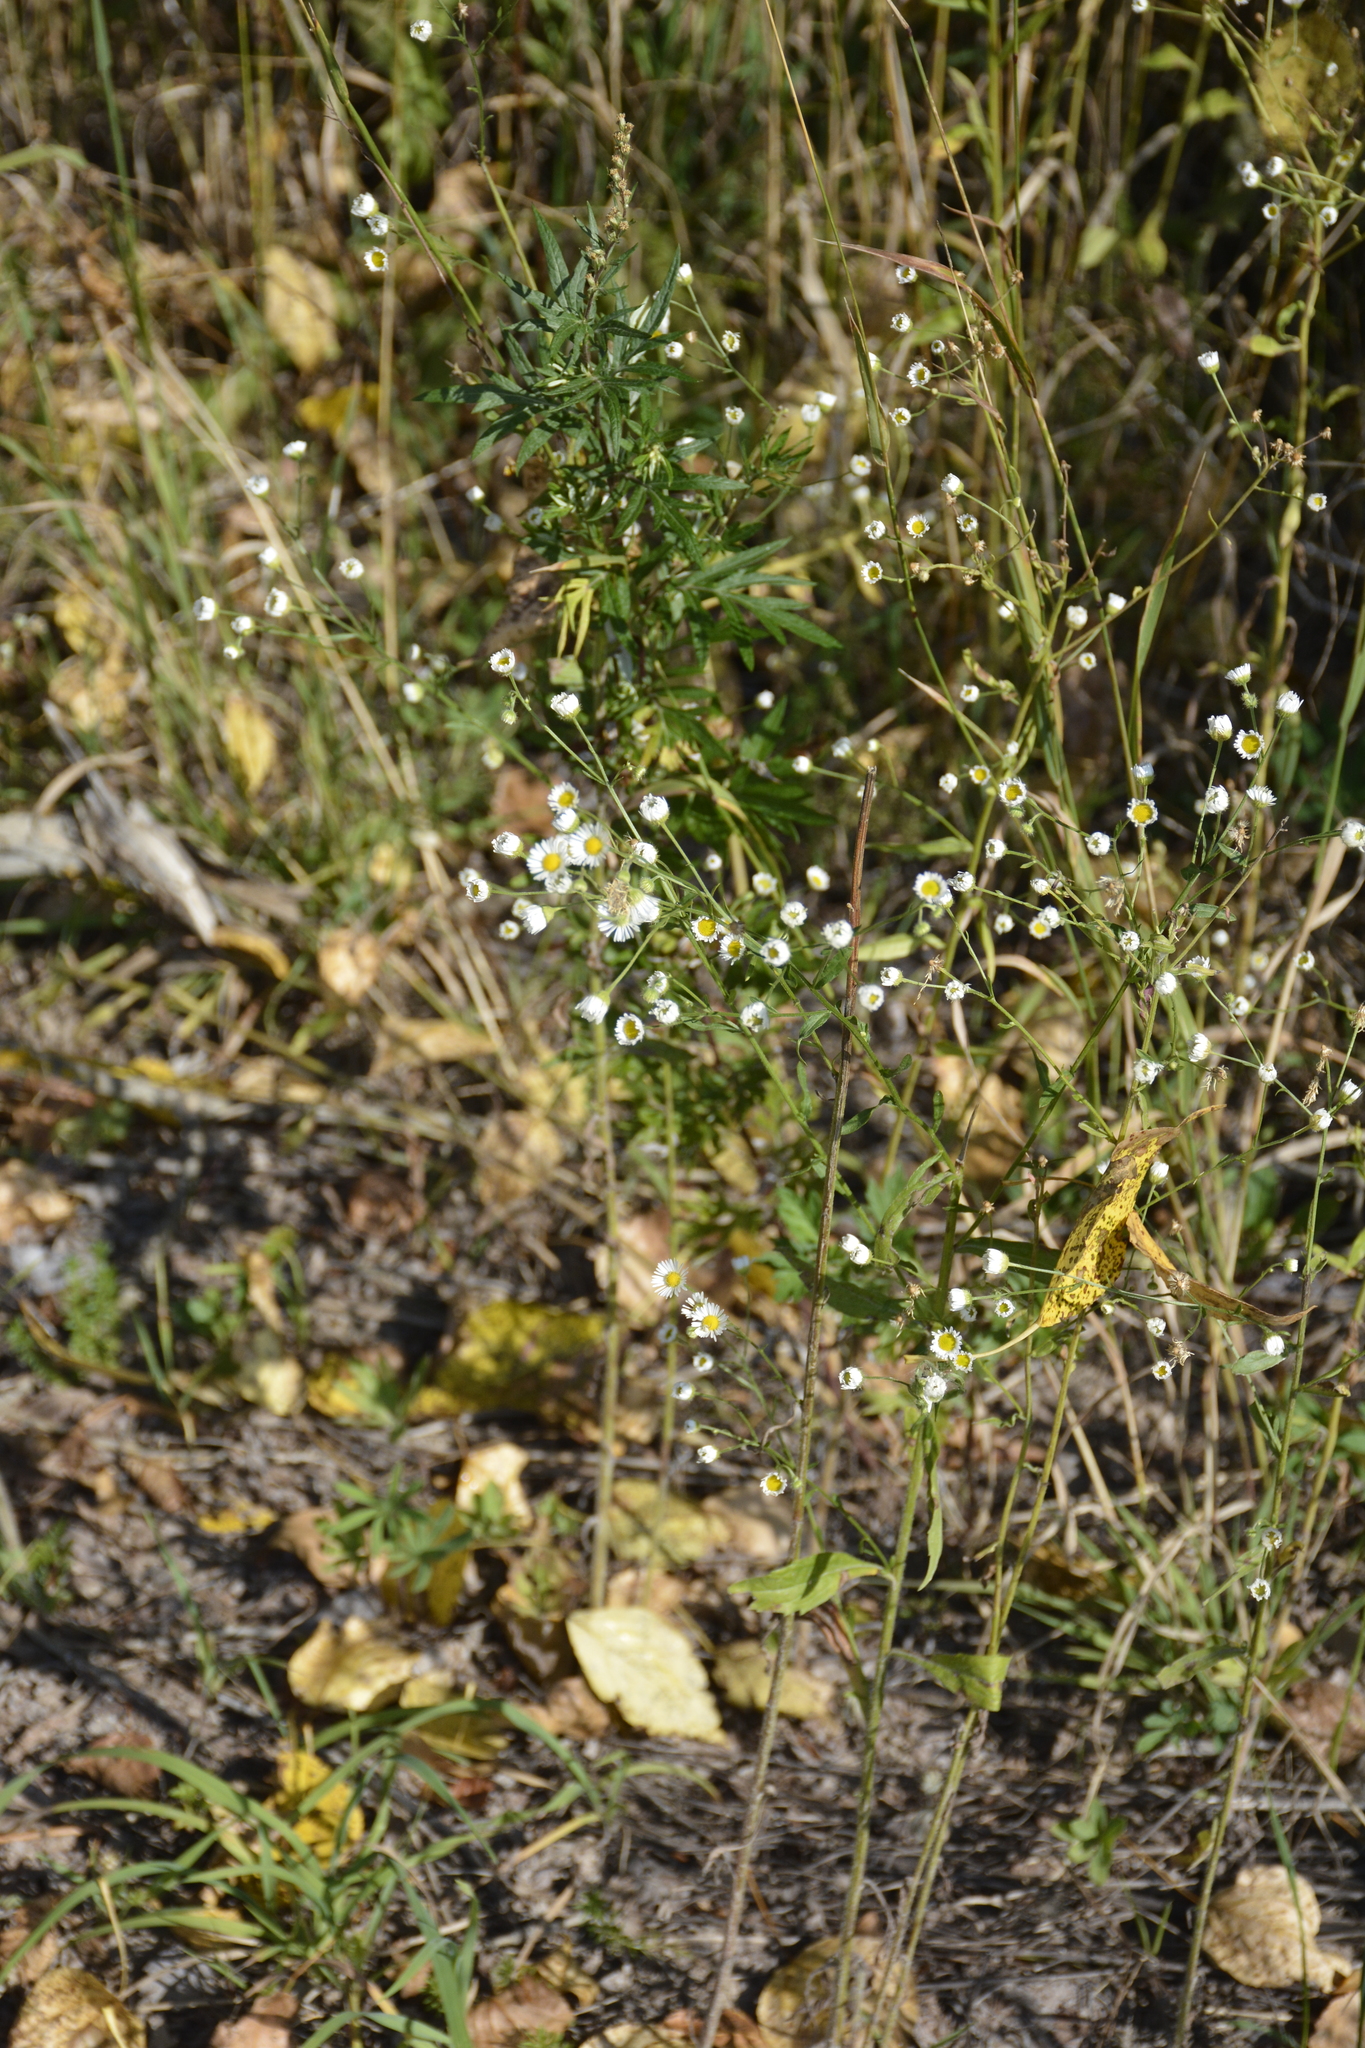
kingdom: Plantae
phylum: Tracheophyta
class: Magnoliopsida
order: Asterales
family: Asteraceae
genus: Erigeron
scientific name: Erigeron strigosus
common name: Common eastern fleabane
